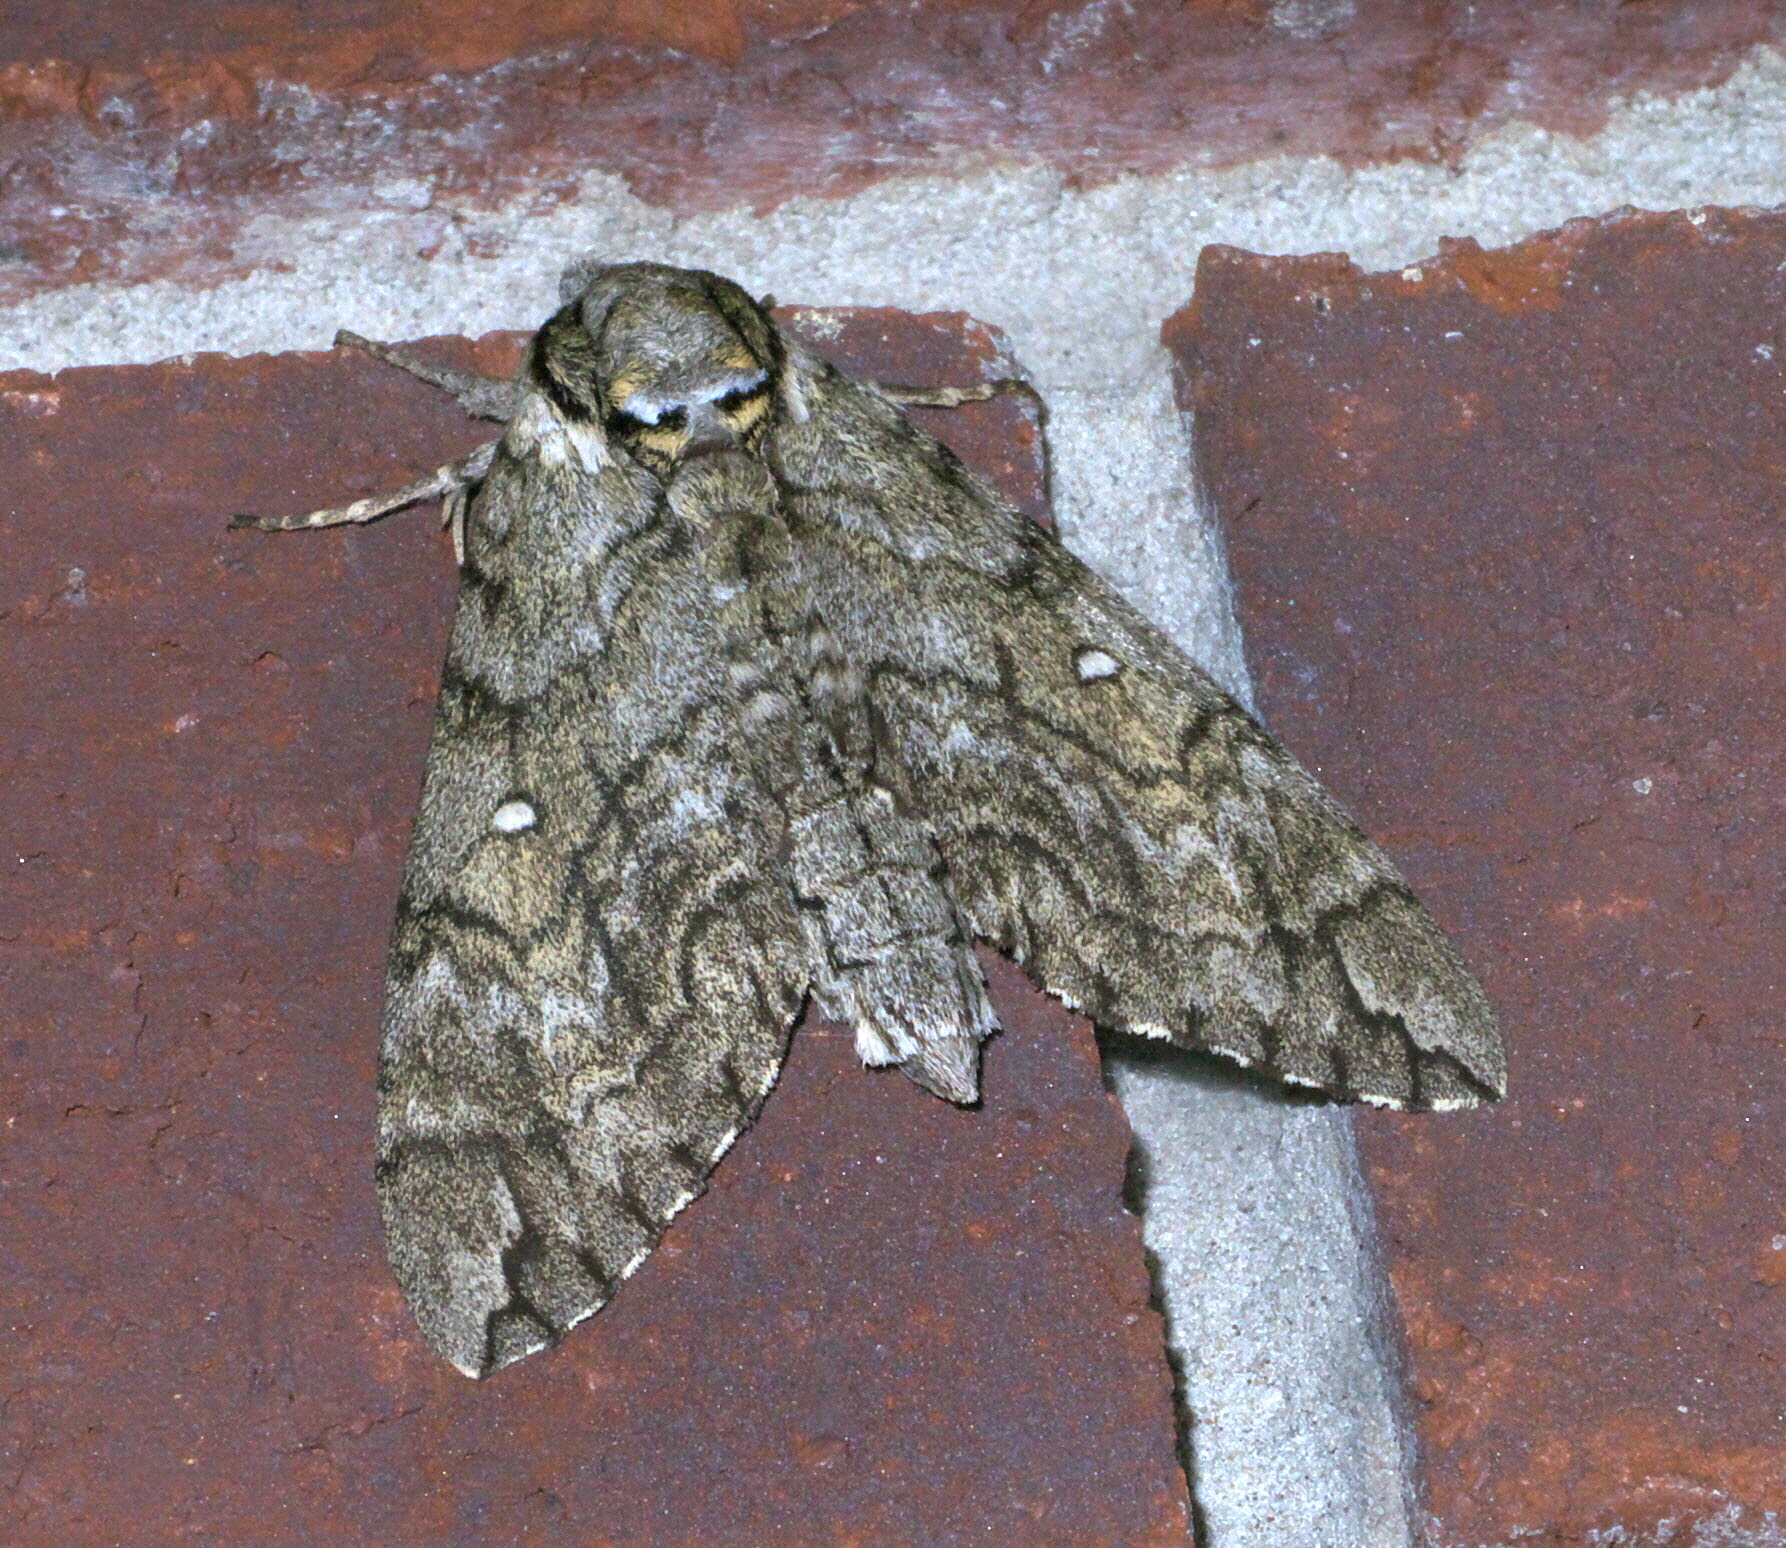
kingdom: Animalia
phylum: Arthropoda
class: Insecta
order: Lepidoptera
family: Sphingidae
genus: Ceratomia
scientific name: Ceratomia undulosa
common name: Waved sphinx
